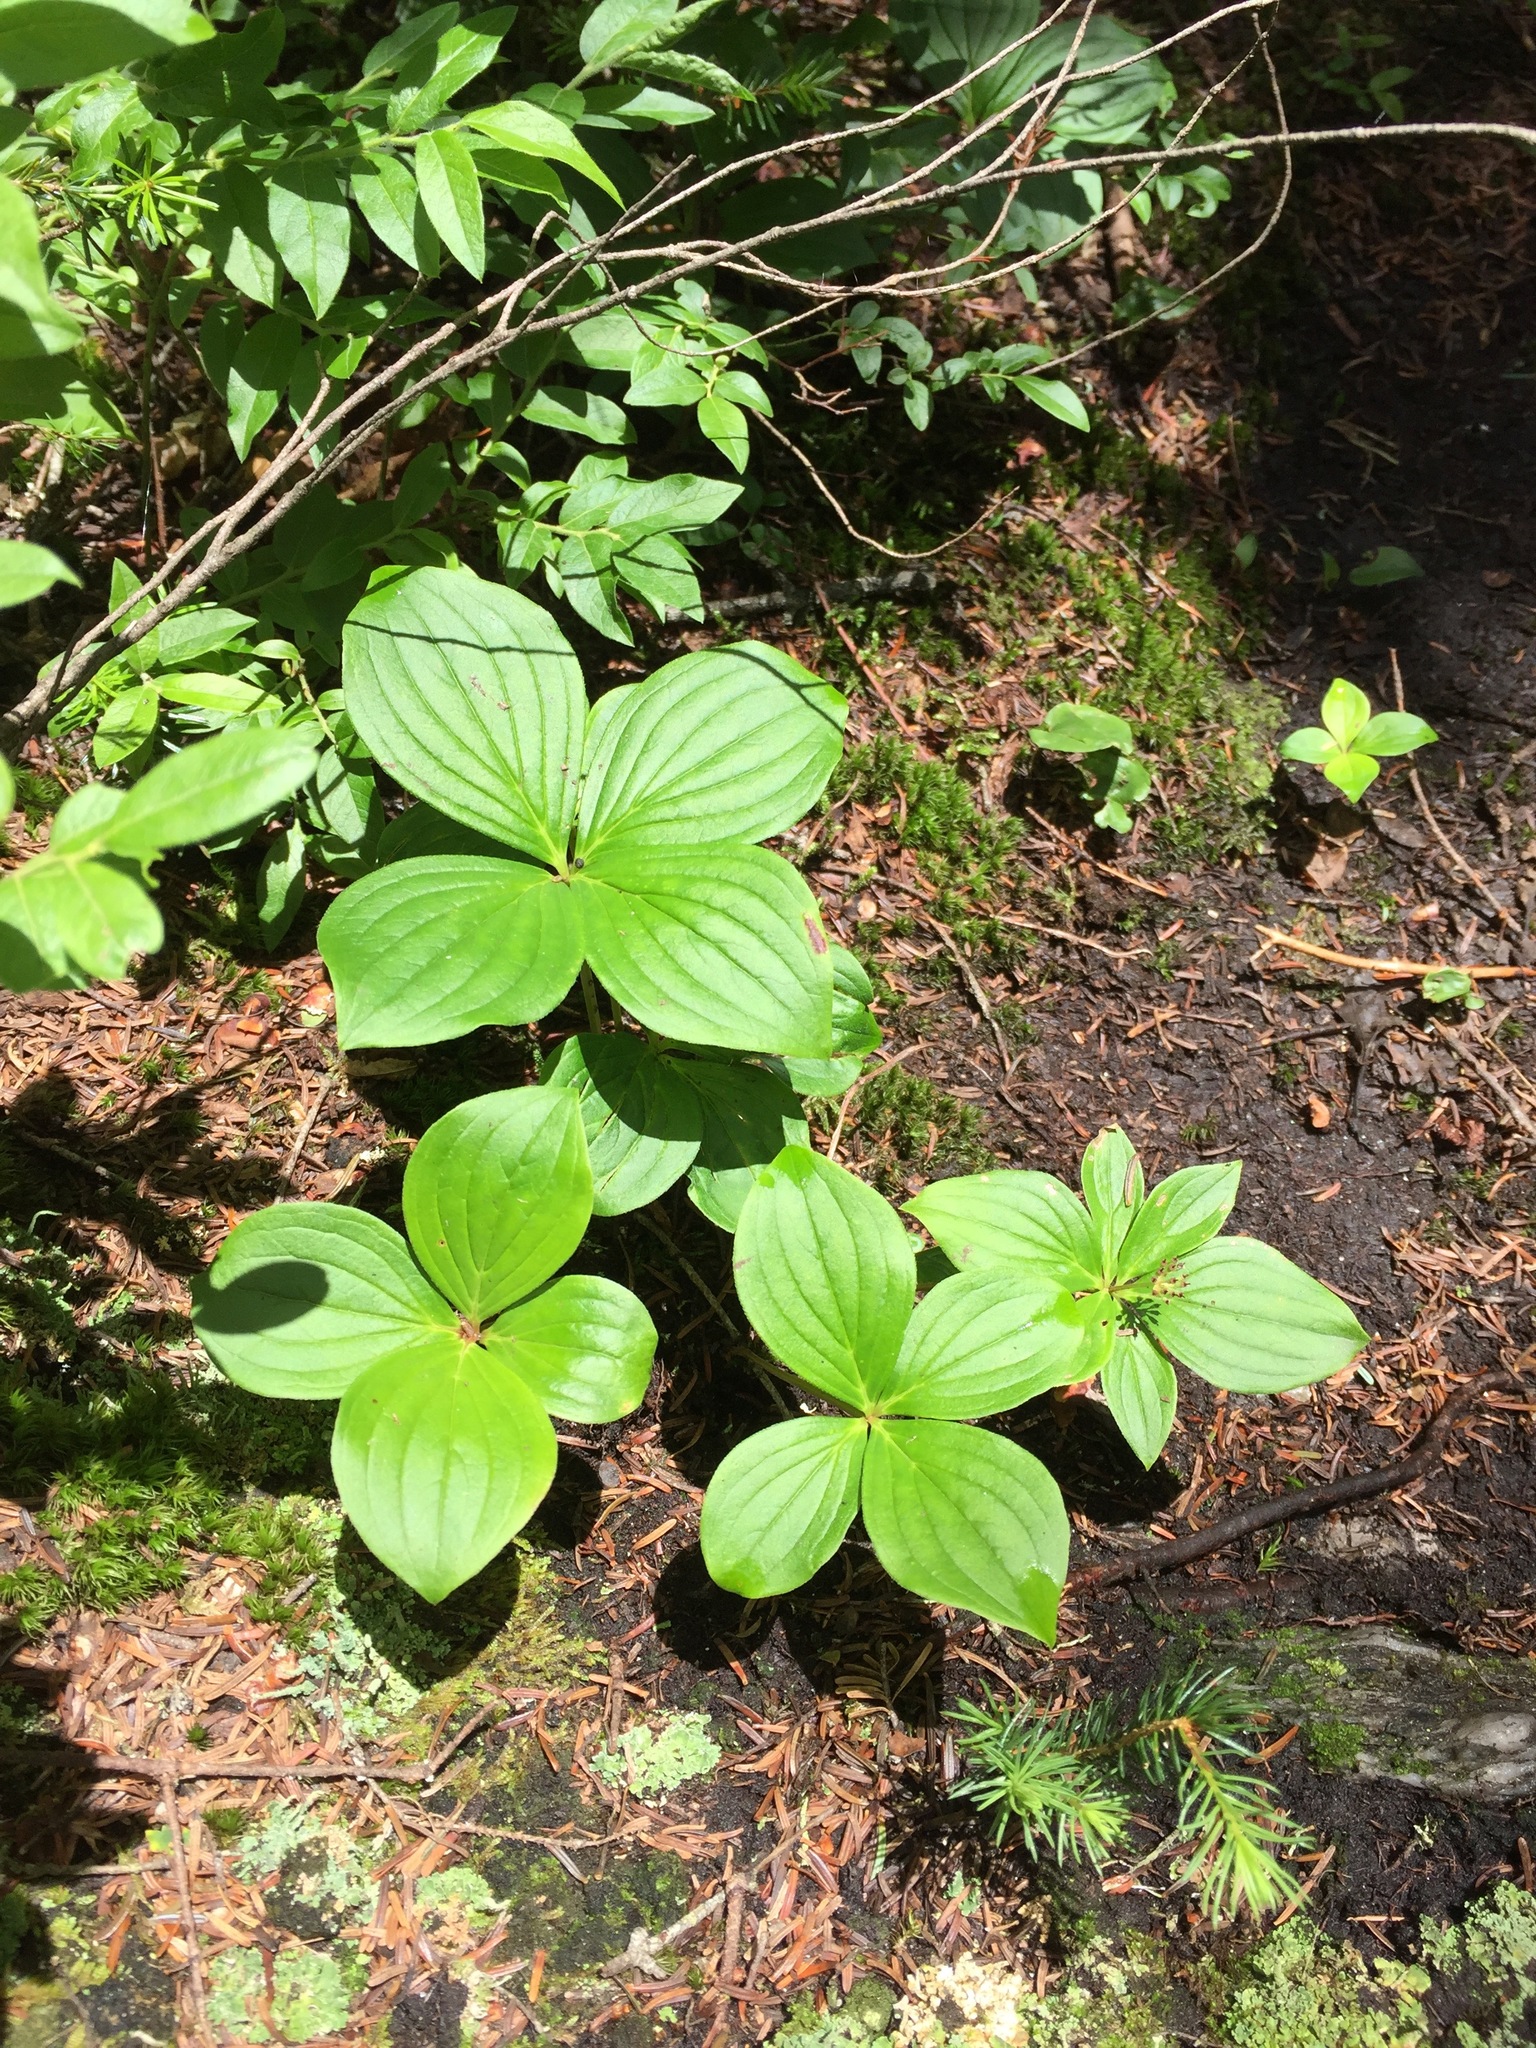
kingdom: Plantae
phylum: Tracheophyta
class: Magnoliopsida
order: Cornales
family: Cornaceae
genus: Cornus
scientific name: Cornus canadensis
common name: Creeping dogwood
